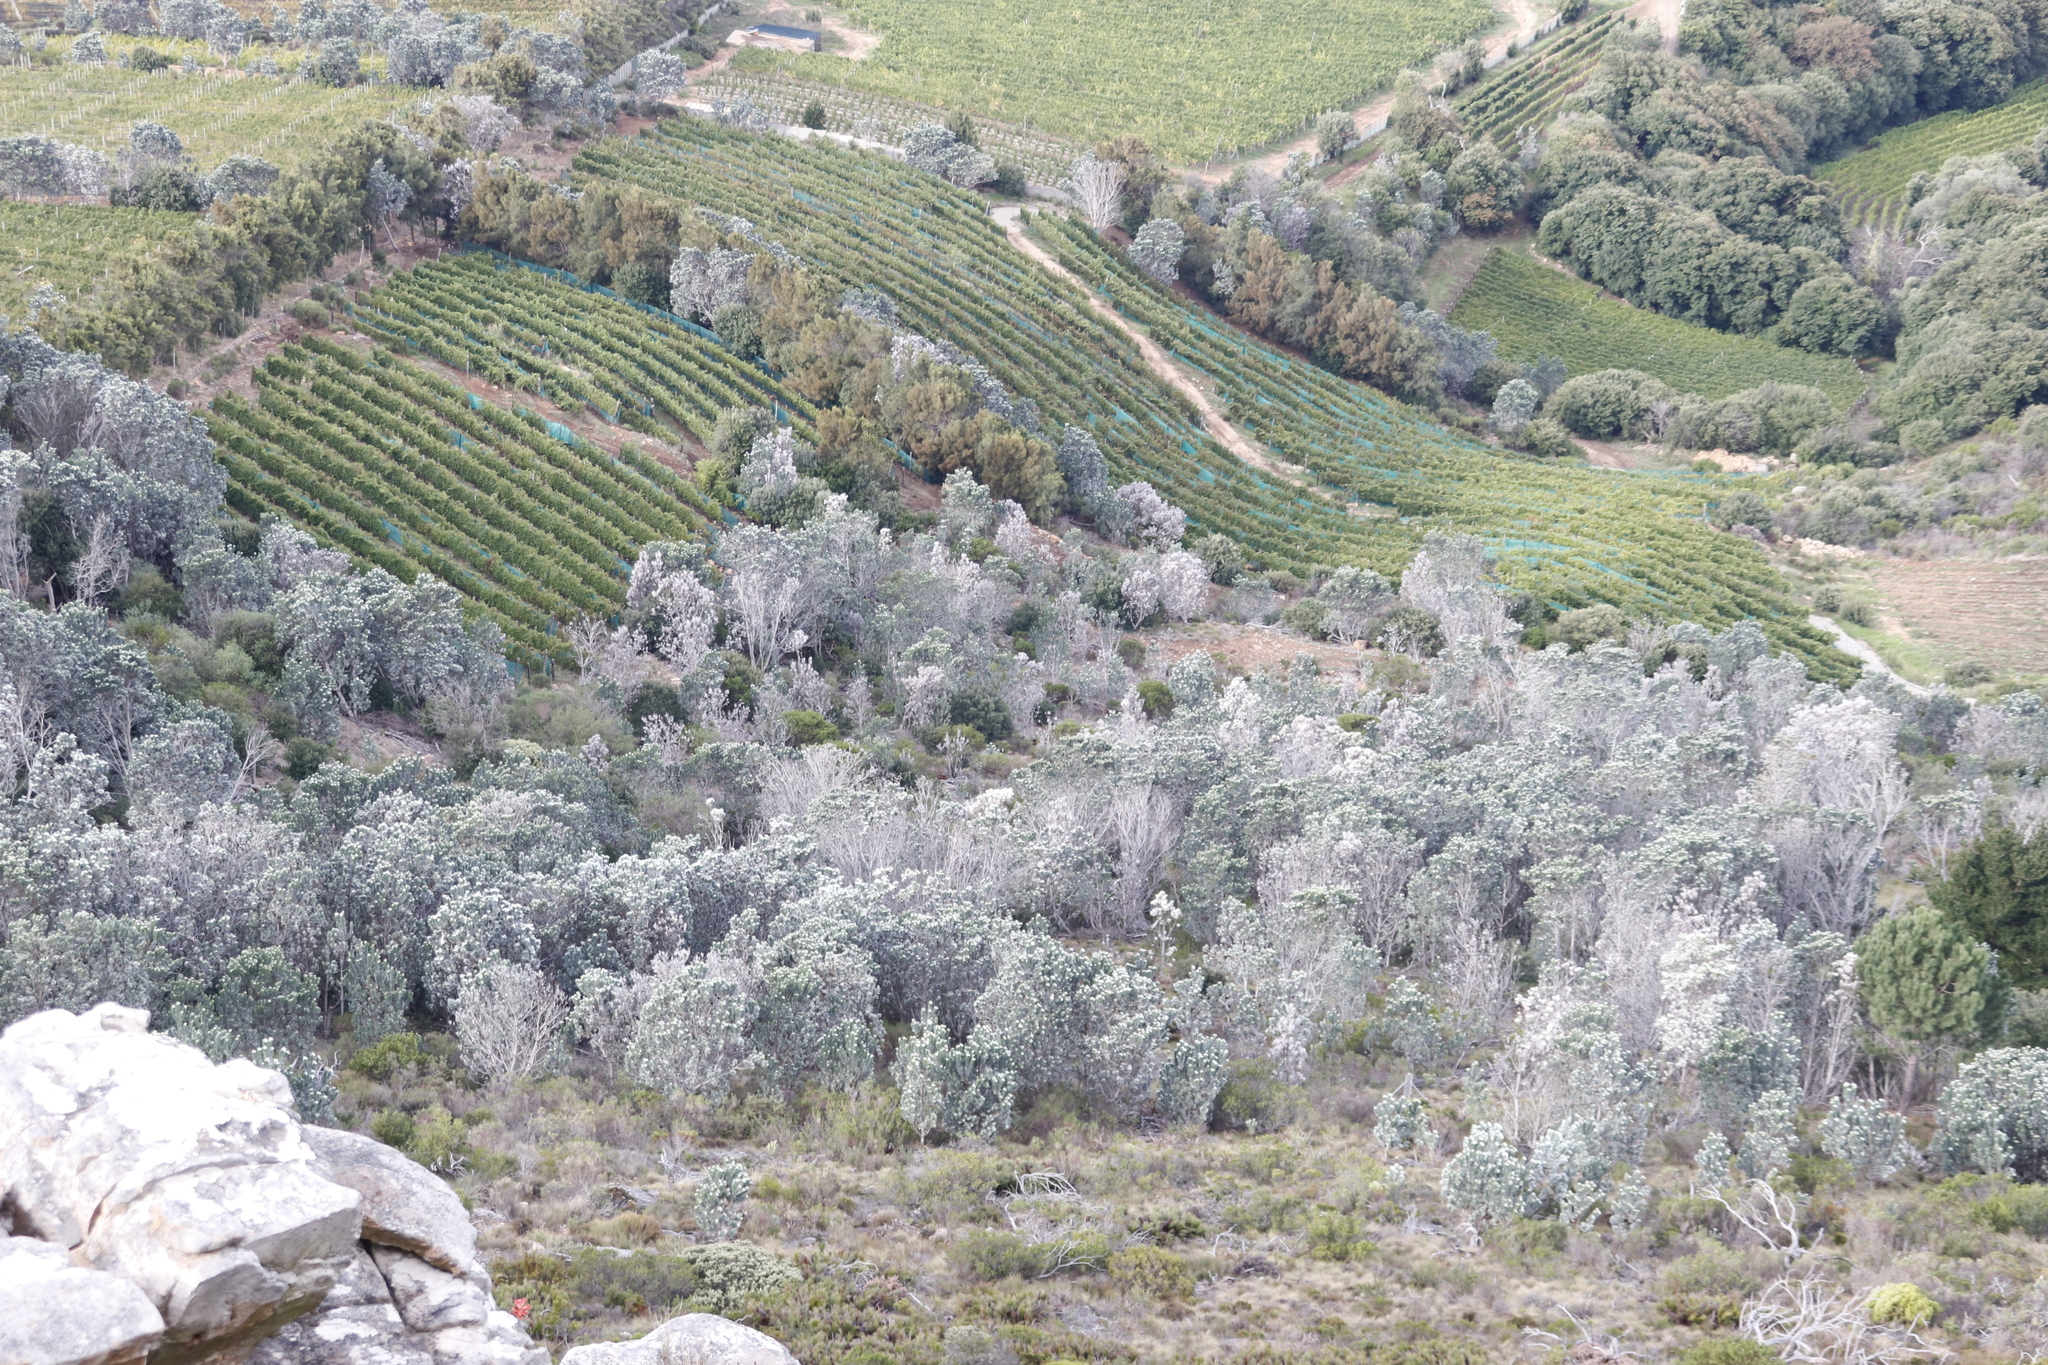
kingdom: Plantae
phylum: Tracheophyta
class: Magnoliopsida
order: Proteales
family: Proteaceae
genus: Leucadendron
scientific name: Leucadendron argenteum
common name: Cape silver tree
